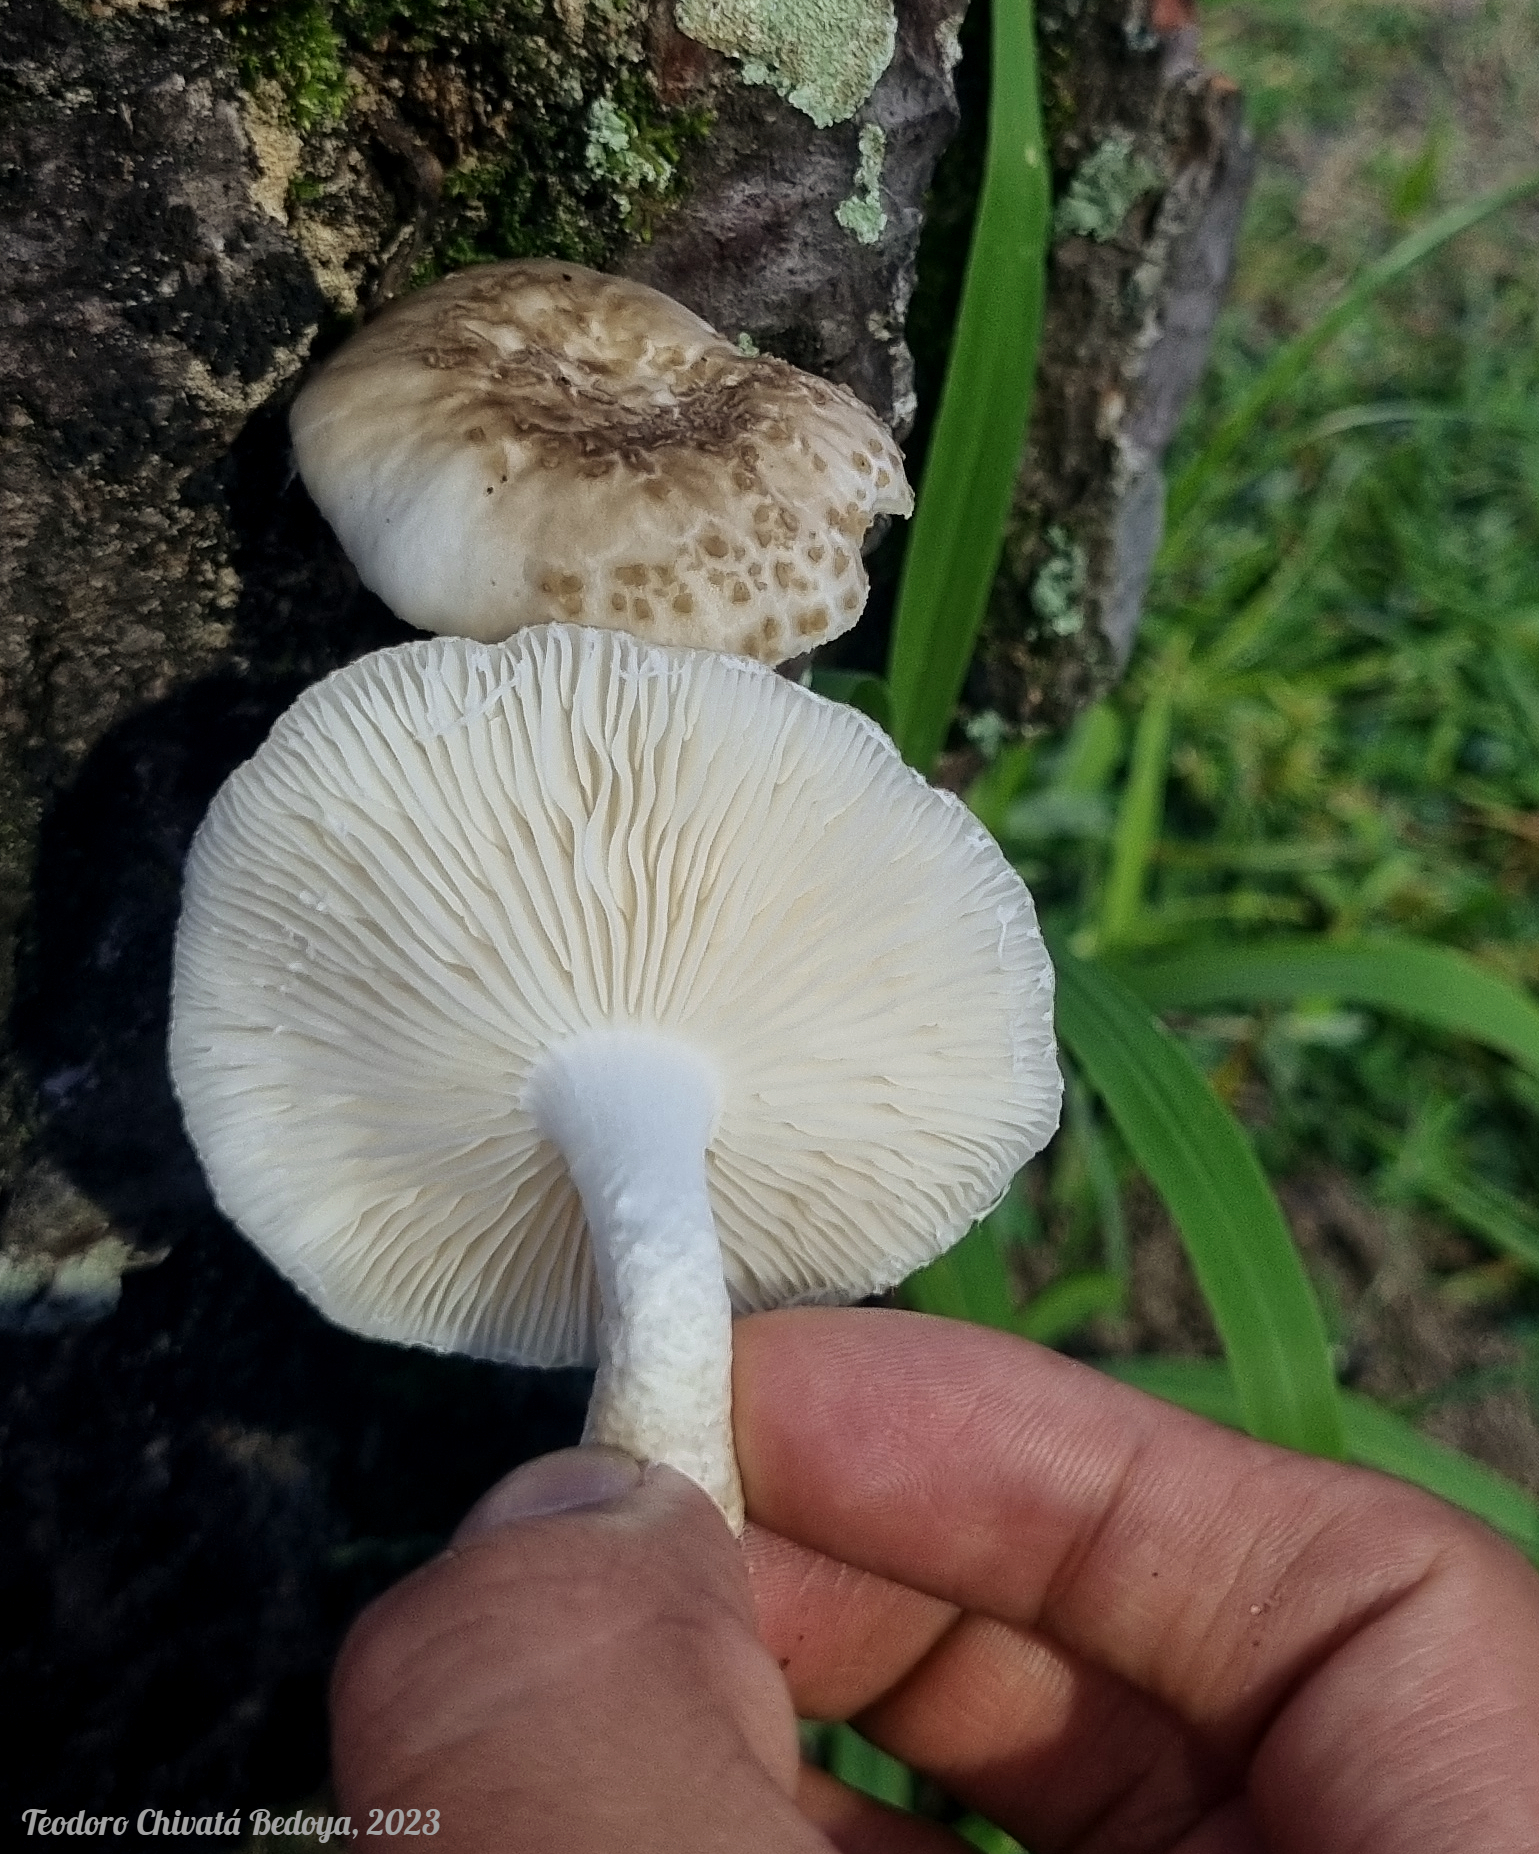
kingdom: Fungi
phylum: Basidiomycota
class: Agaricomycetes
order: Agaricales
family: Physalacriaceae
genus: Oudemansiella
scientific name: Oudemansiella cubensis
